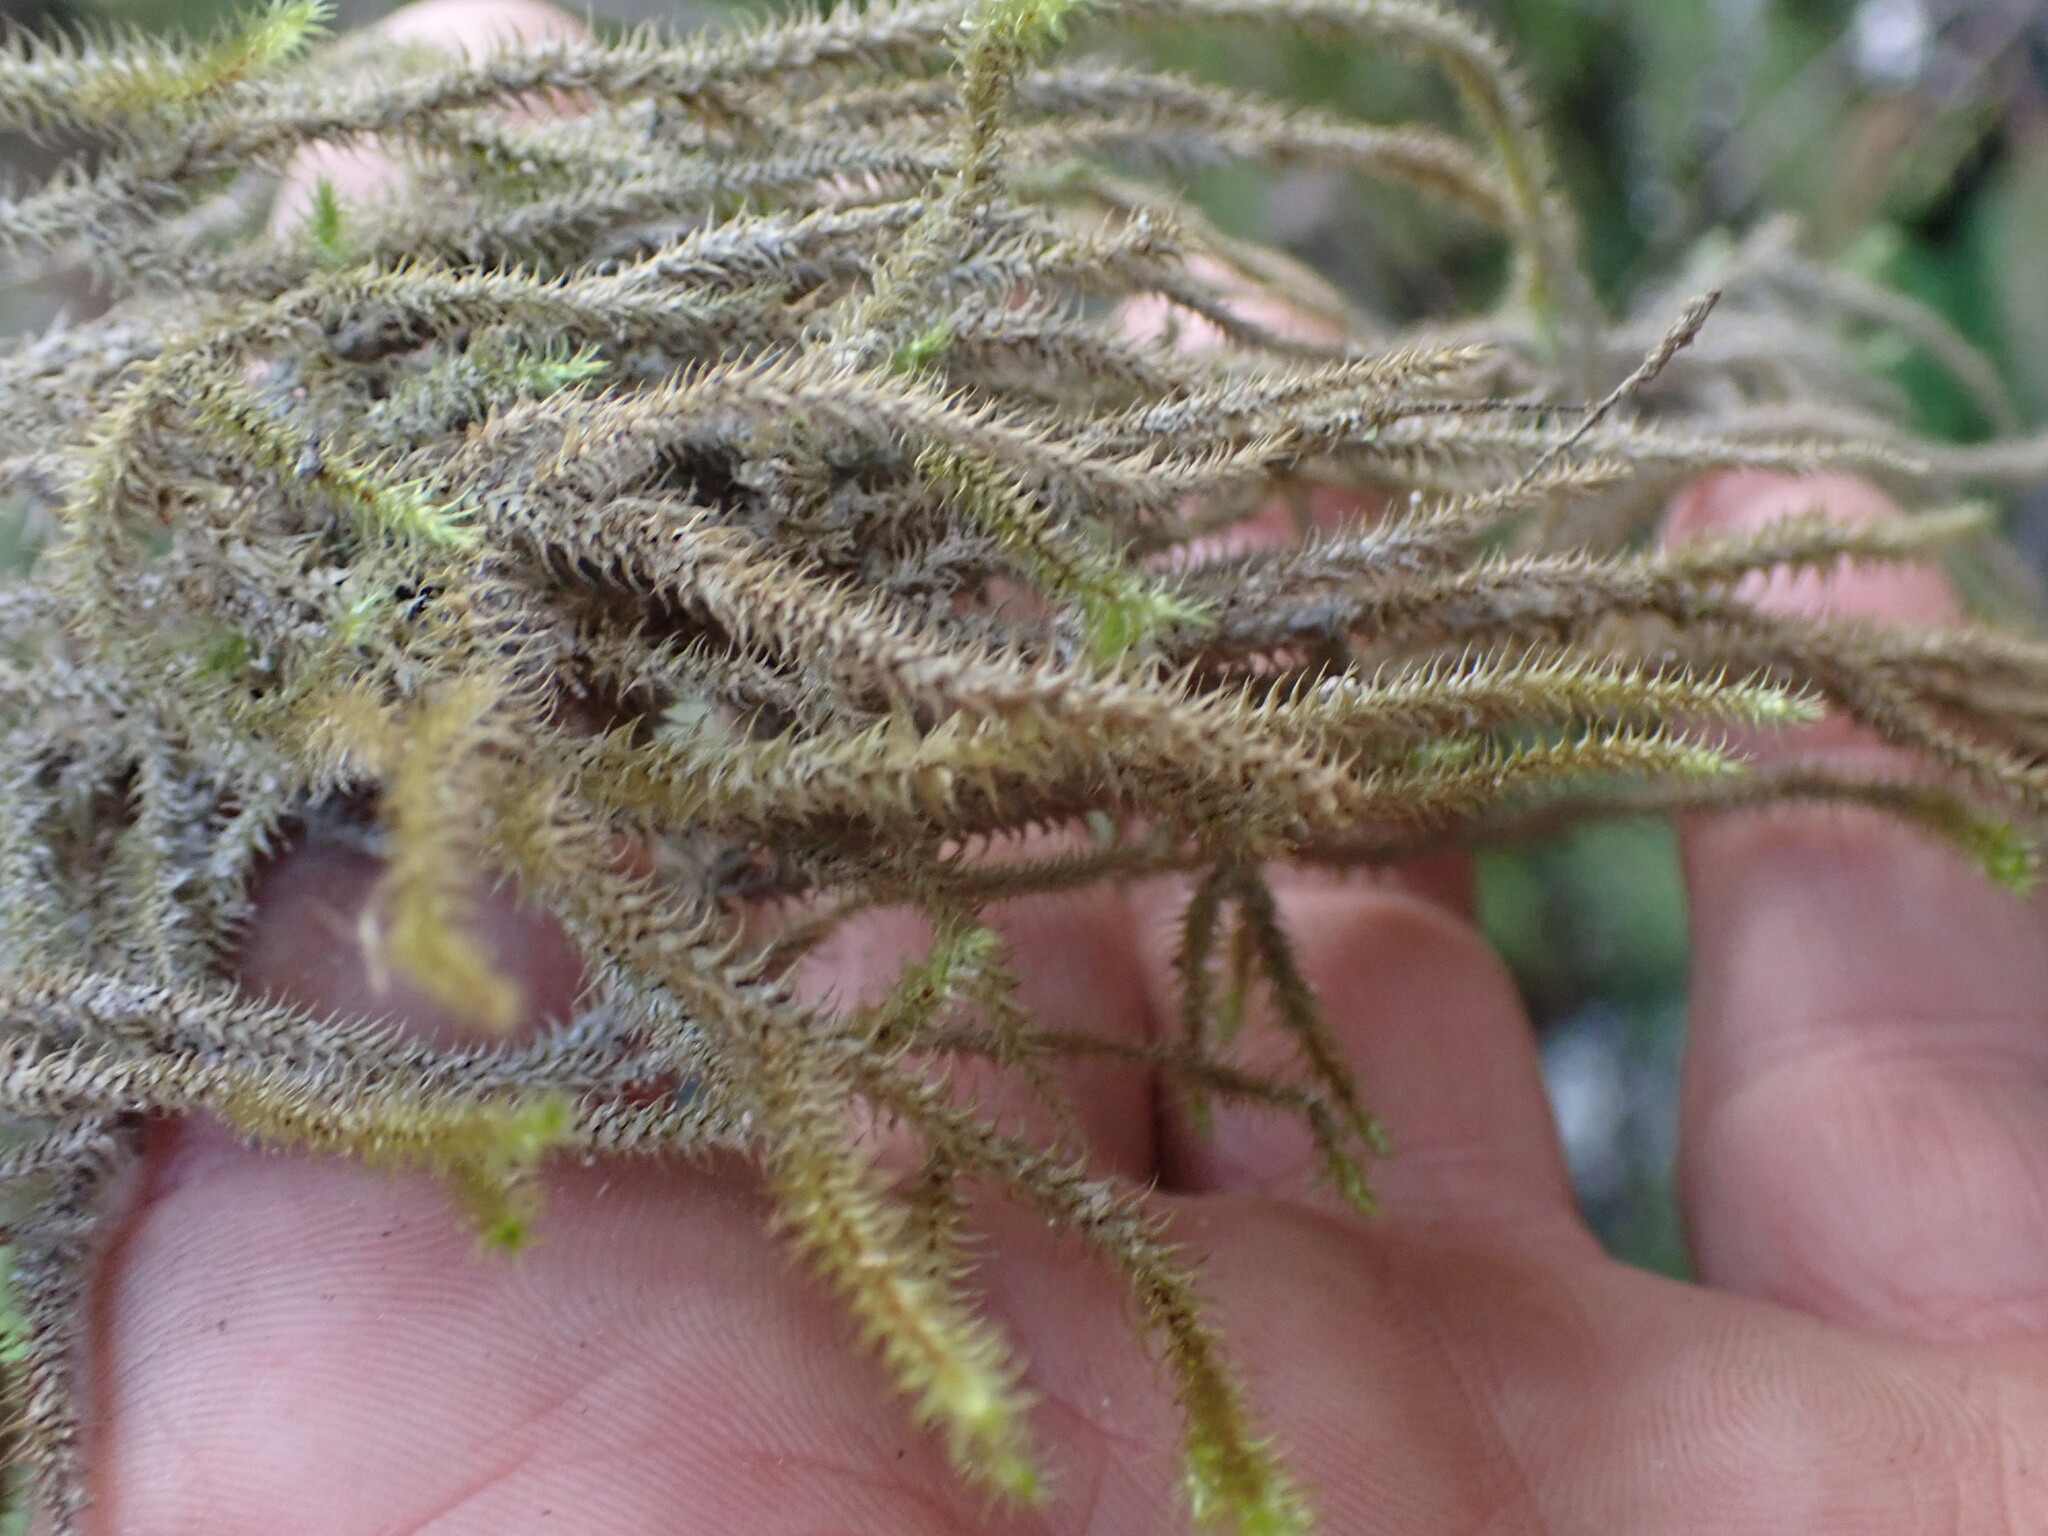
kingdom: Plantae
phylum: Bryophyta
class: Bryopsida
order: Hypnales
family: Hylocomiaceae
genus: Rhytidiadelphus
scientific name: Rhytidiadelphus loreus
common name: Lanky moss
